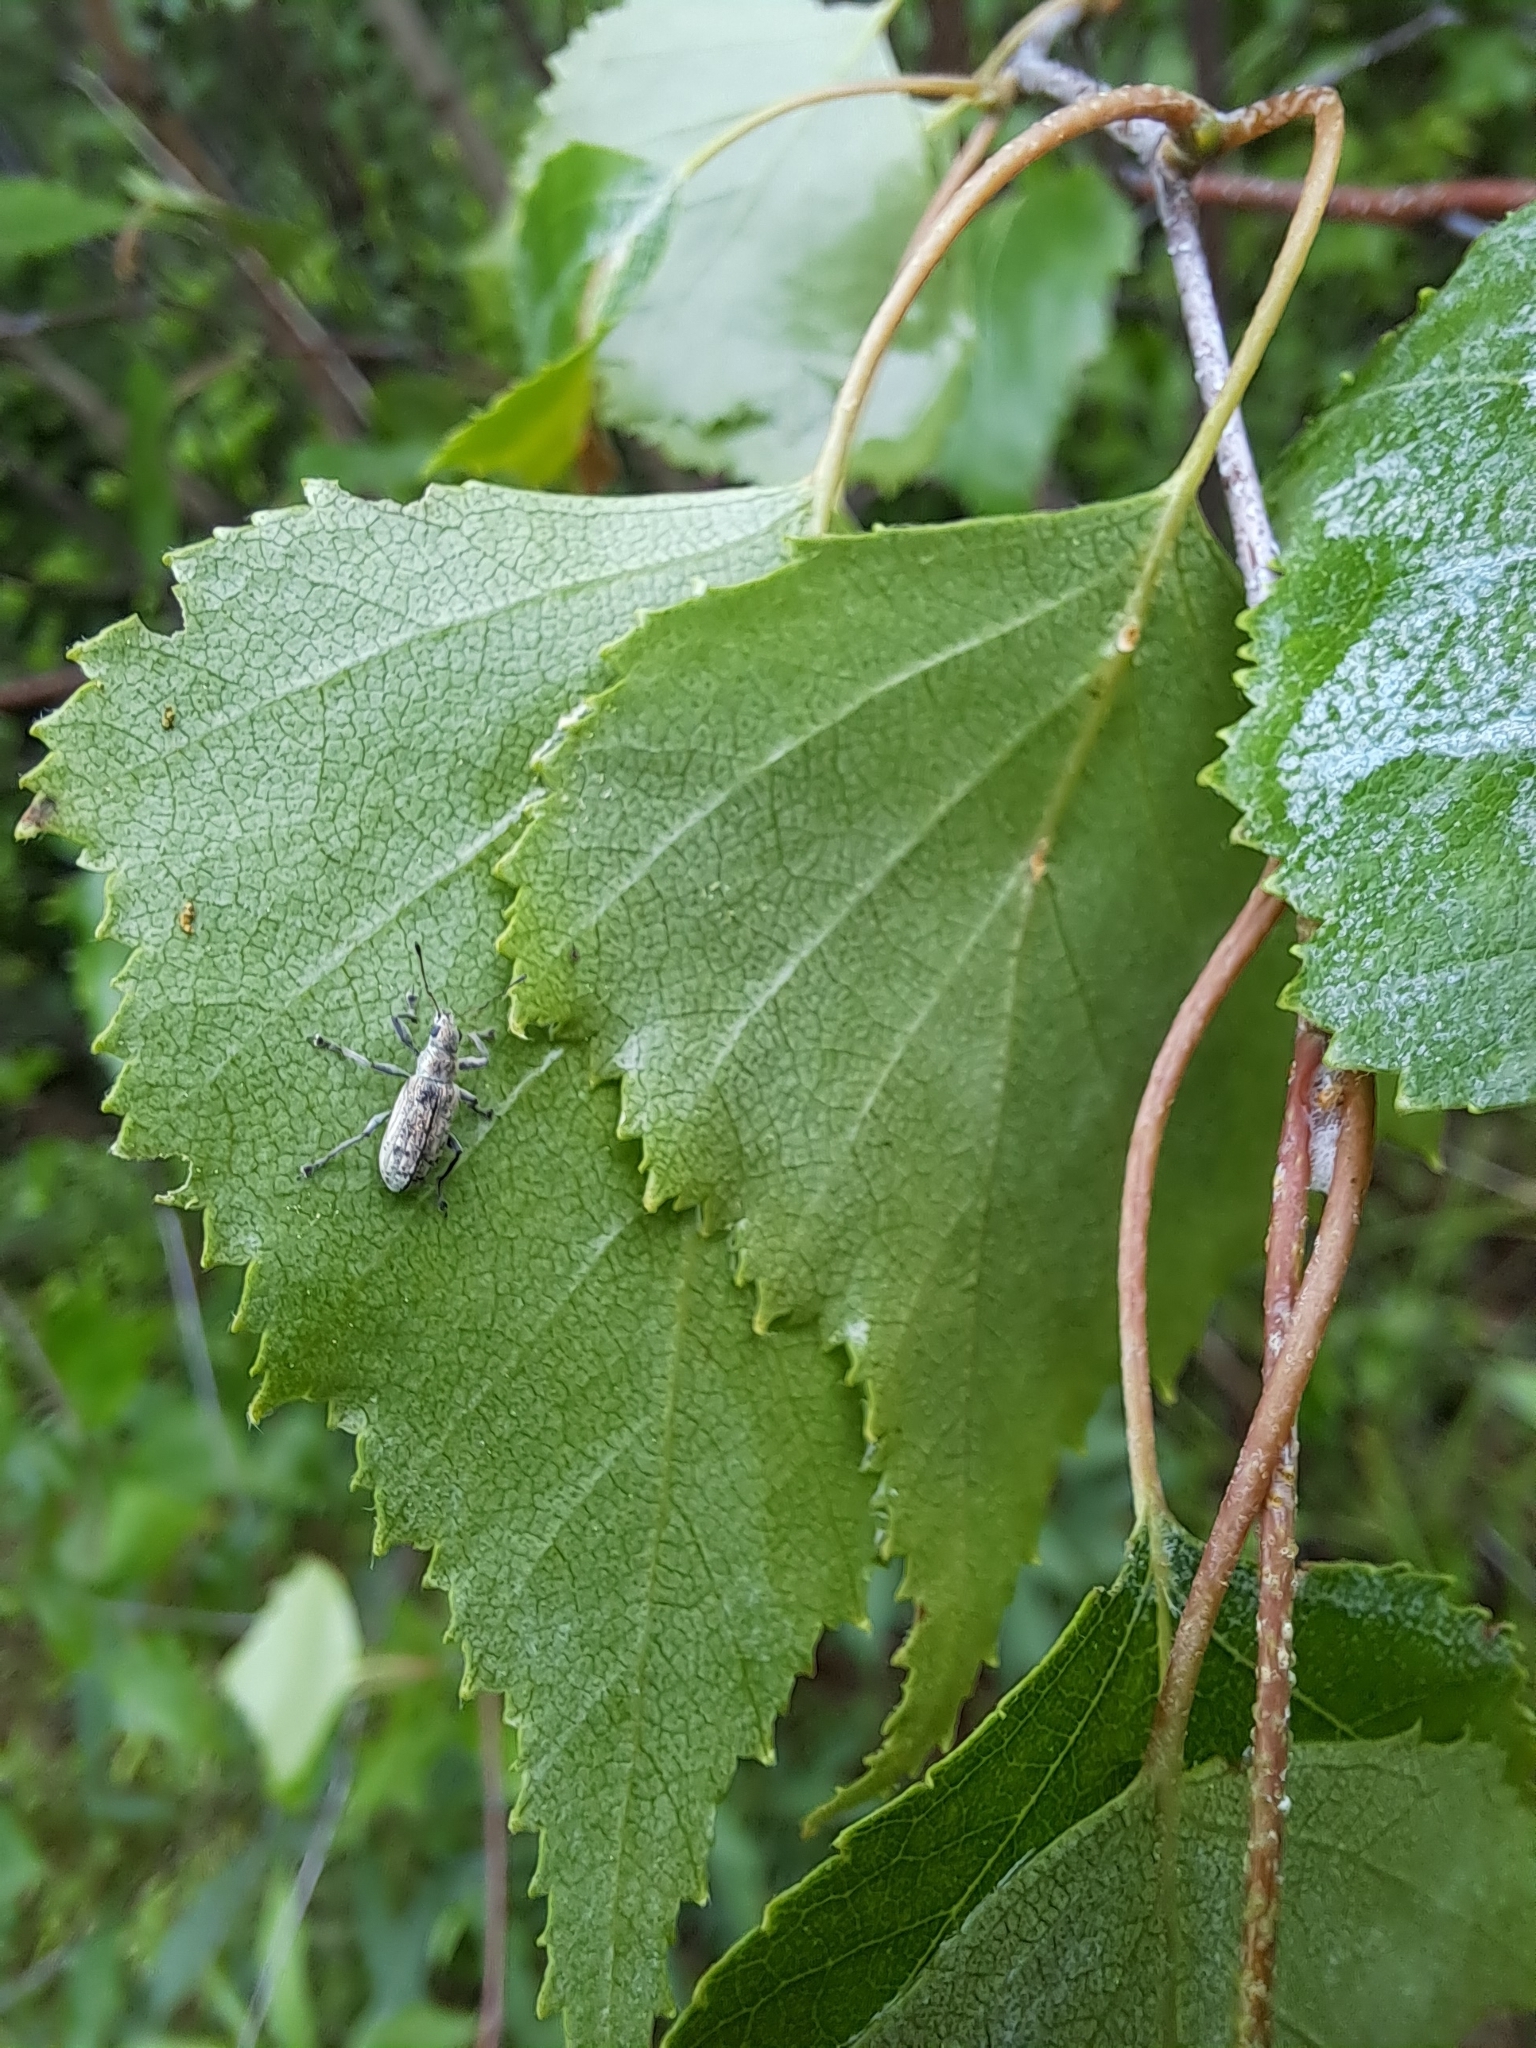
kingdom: Animalia
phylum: Arthropoda
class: Insecta
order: Coleoptera
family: Curculionidae
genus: Polydrusus
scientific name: Polydrusus cervinus
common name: Weevil
